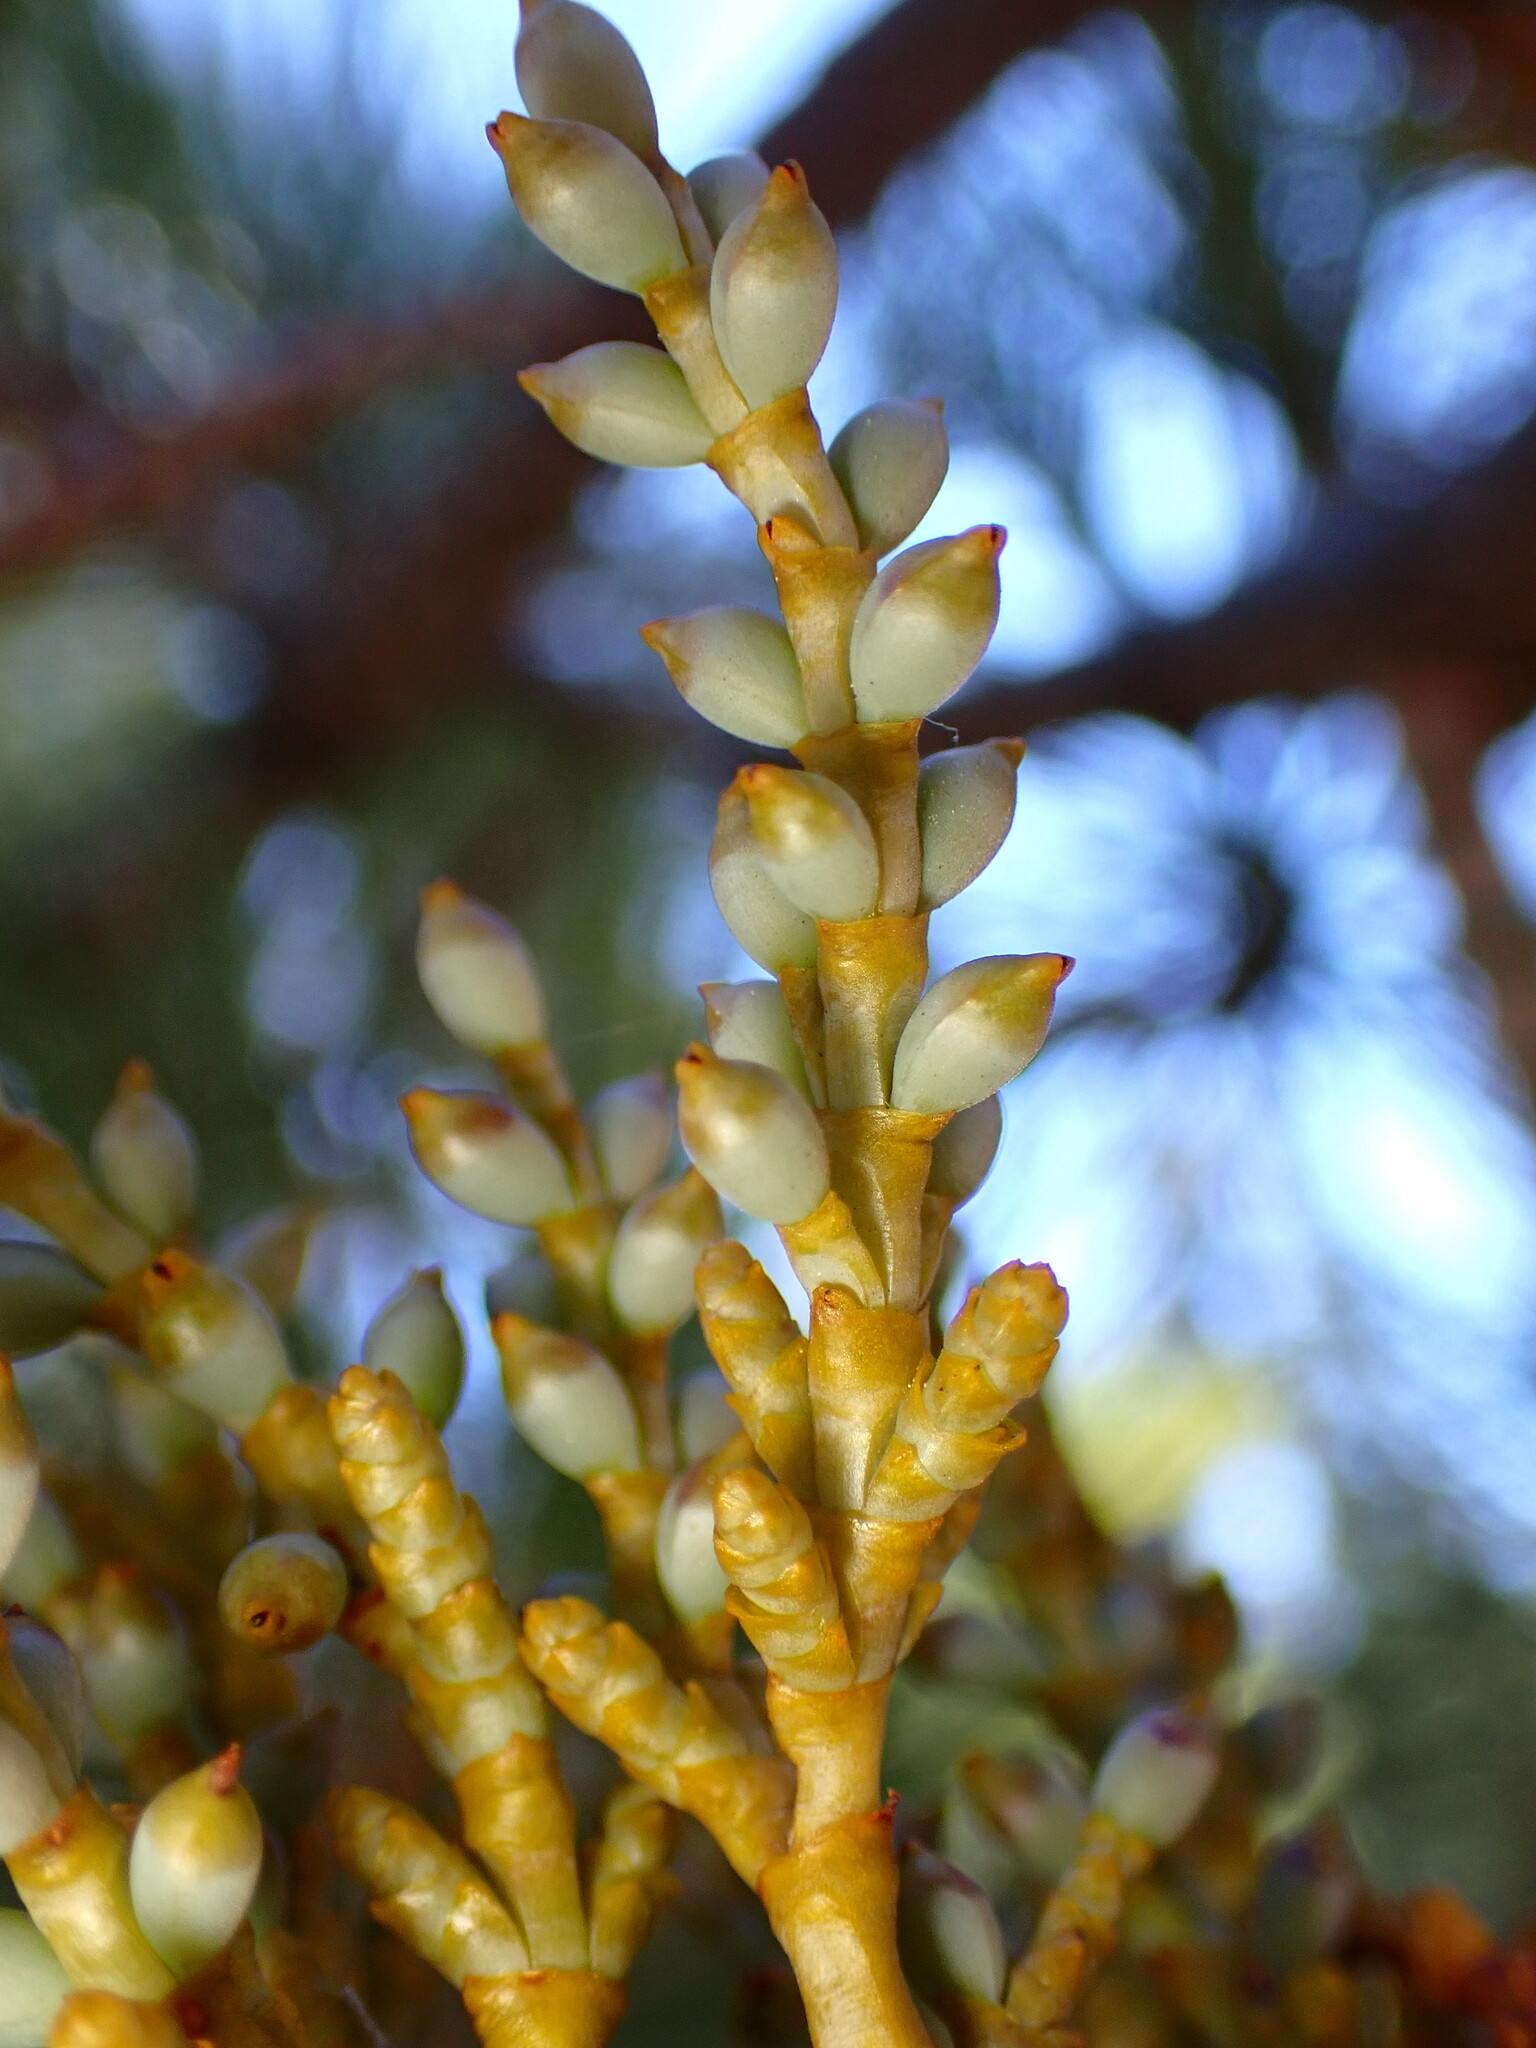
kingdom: Plantae
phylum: Tracheophyta
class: Magnoliopsida
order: Santalales
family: Viscaceae
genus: Arceuthobium
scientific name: Arceuthobium campylopodum
